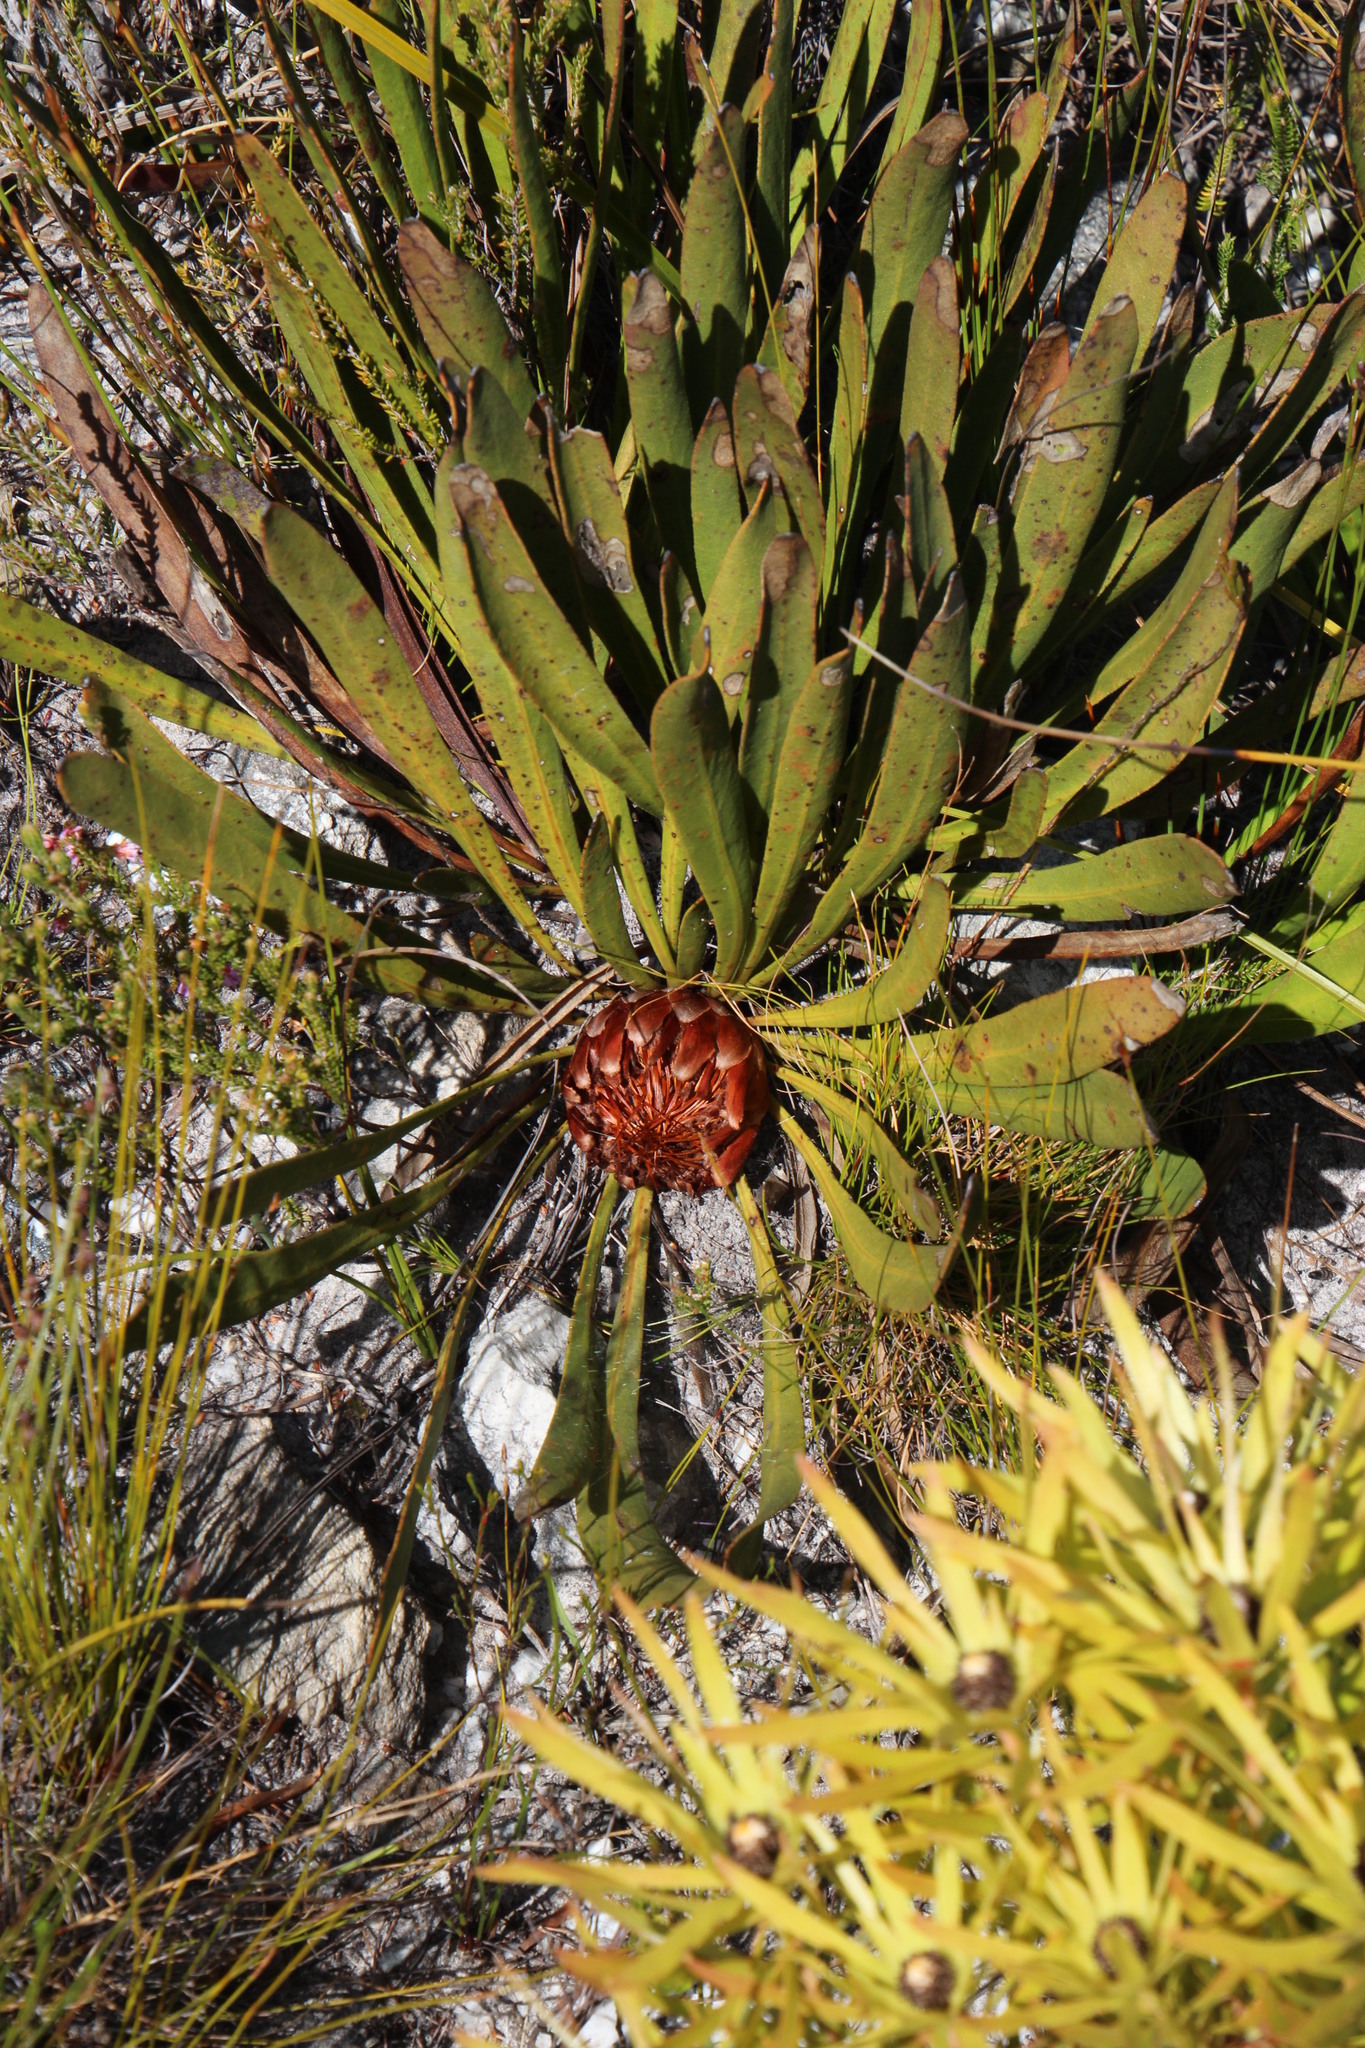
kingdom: Plantae
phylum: Tracheophyta
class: Magnoliopsida
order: Proteales
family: Proteaceae
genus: Protea
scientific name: Protea scabra
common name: Sandpaper-leaf sugarbush
